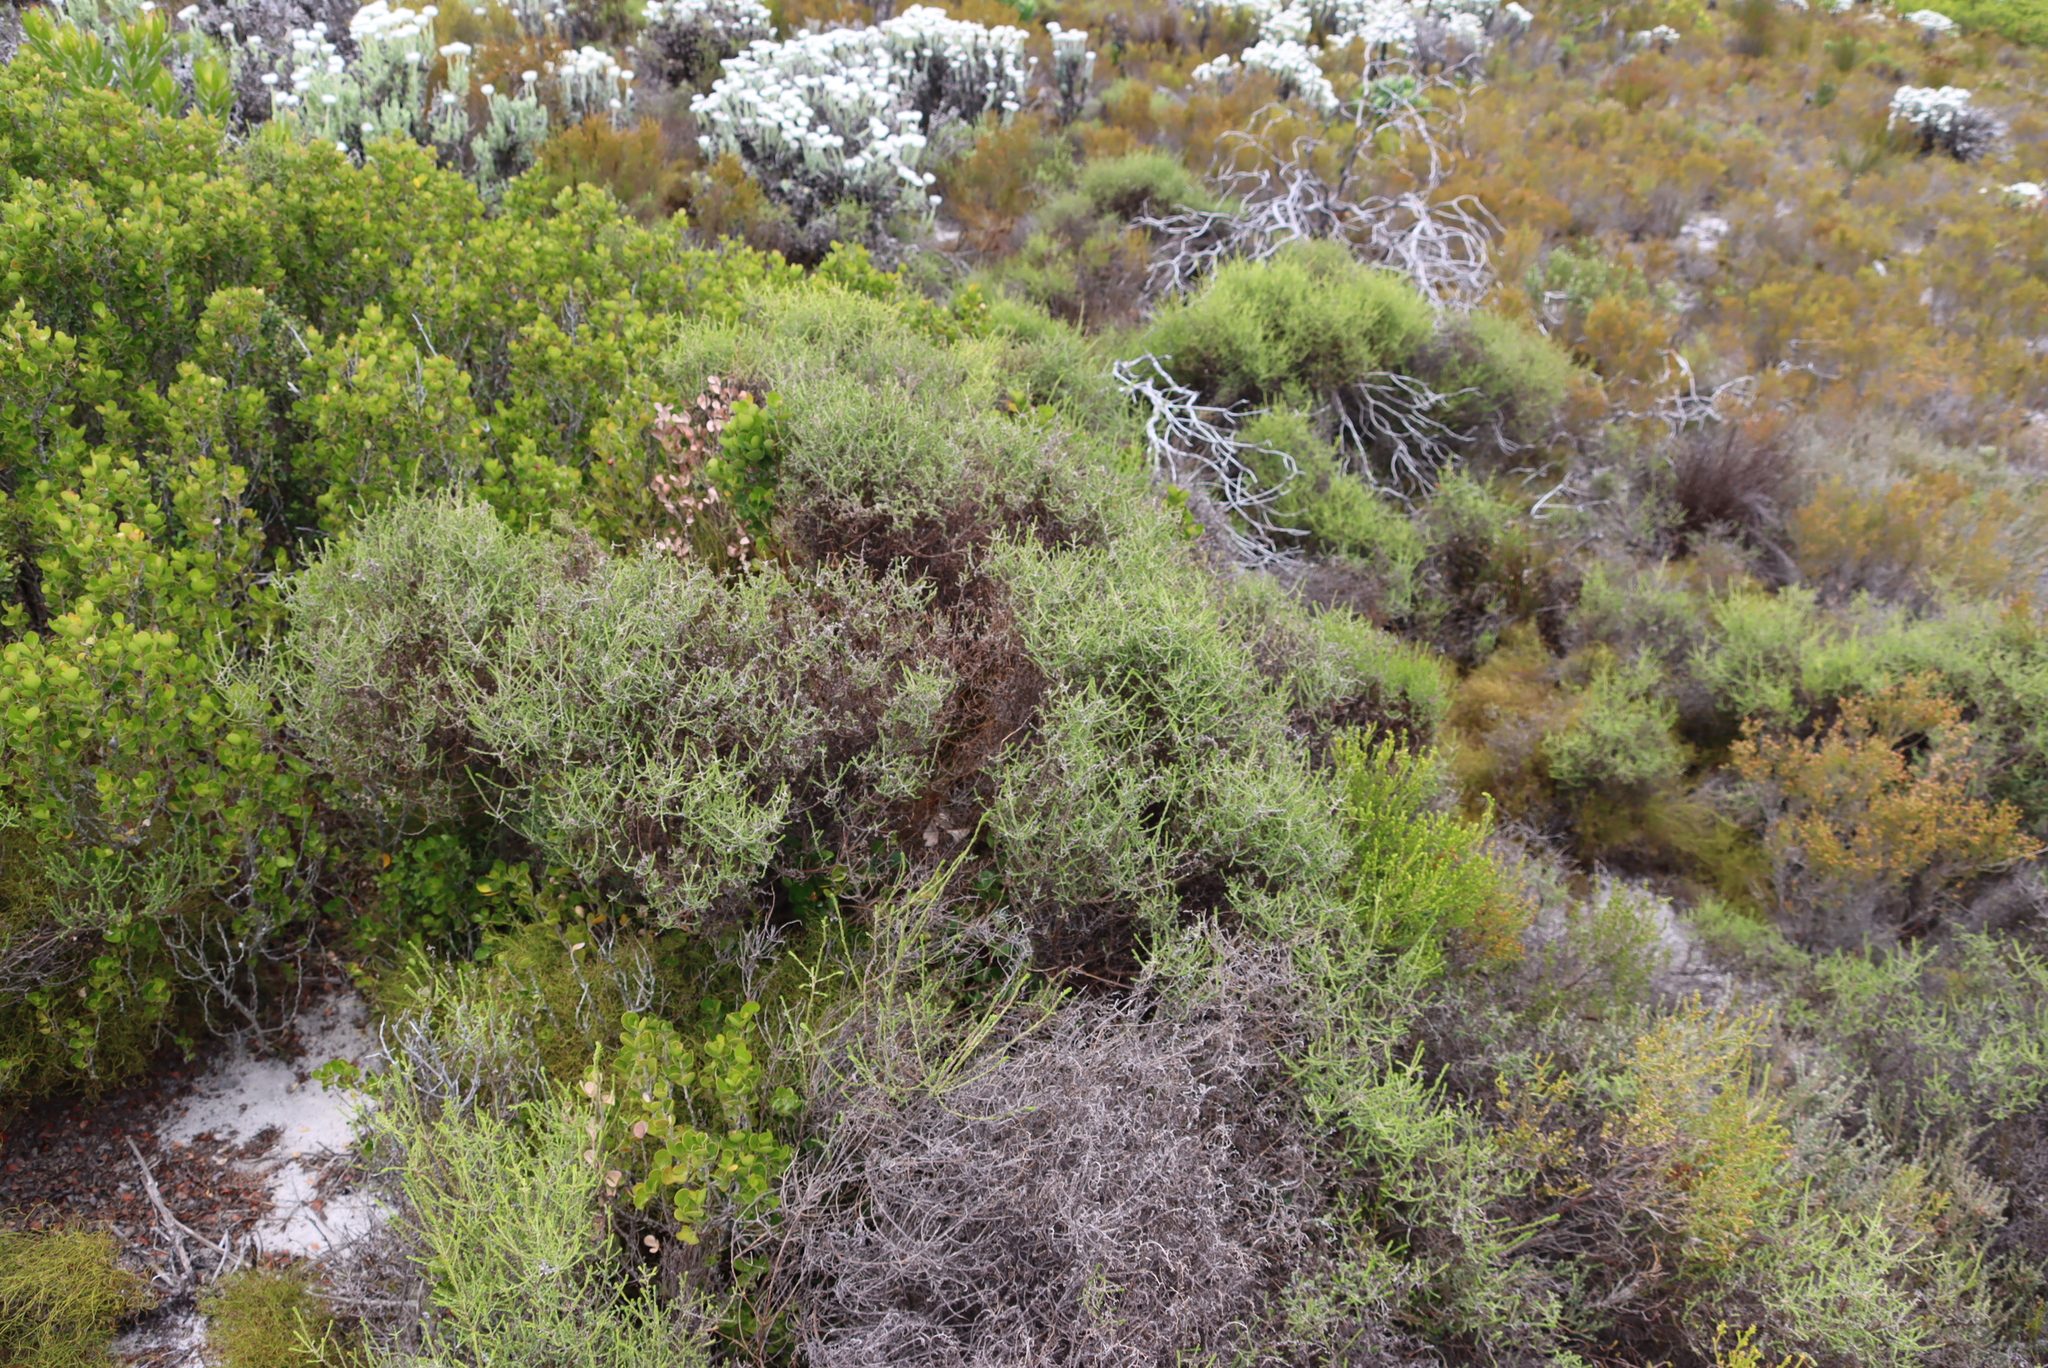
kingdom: Plantae
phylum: Tracheophyta
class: Magnoliopsida
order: Asterales
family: Asteraceae
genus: Myrovernix
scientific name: Myrovernix scaber
